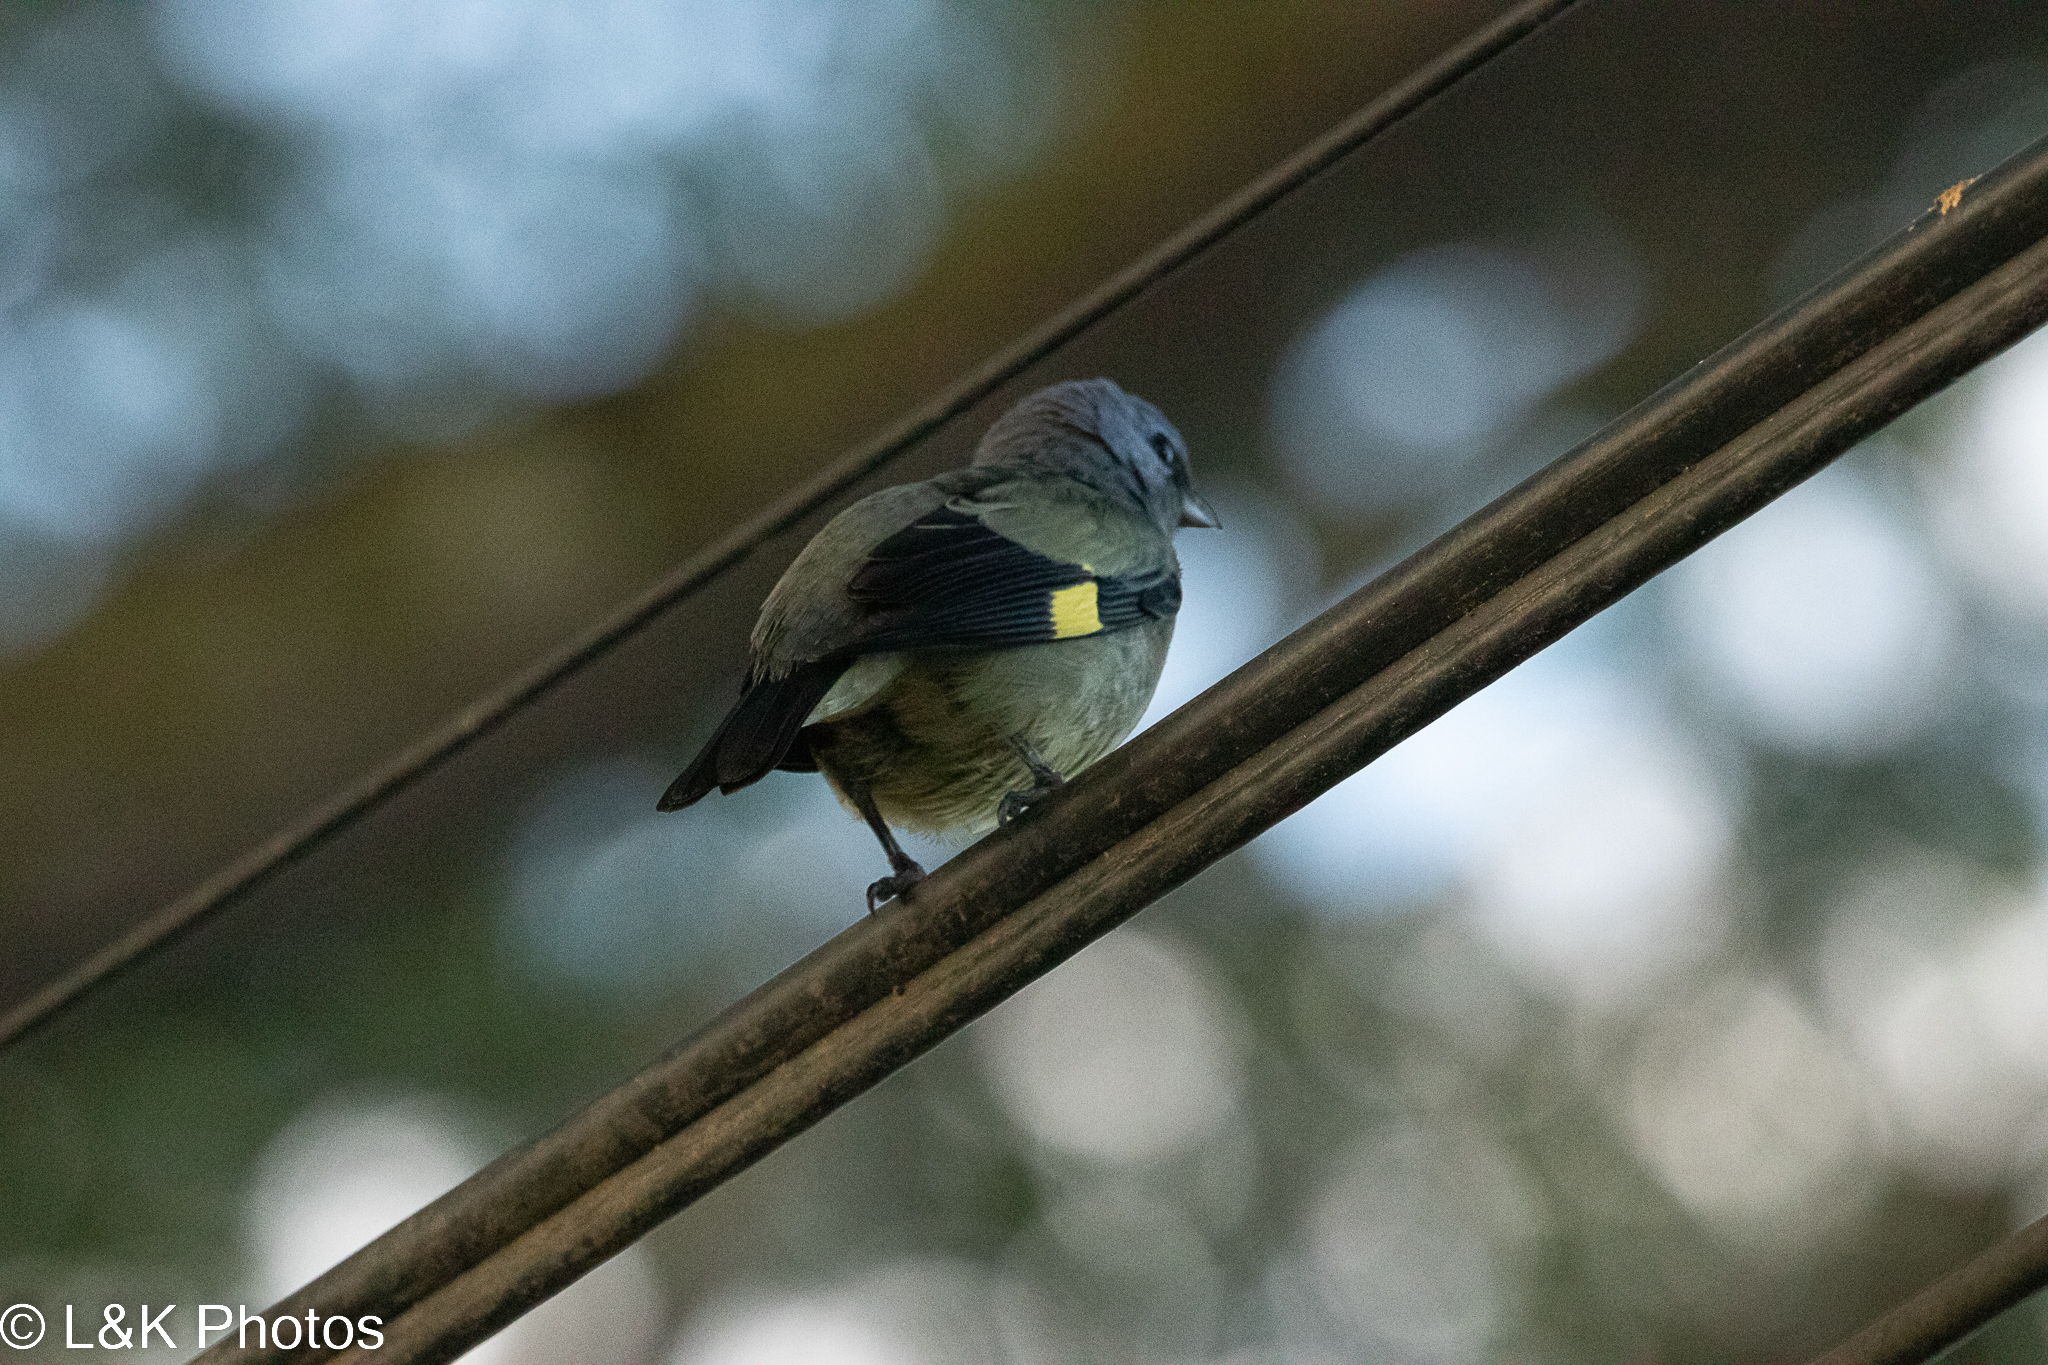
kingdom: Animalia
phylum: Chordata
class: Aves
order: Passeriformes
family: Thraupidae
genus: Thraupis
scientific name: Thraupis abbas
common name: Yellow-winged tanager
